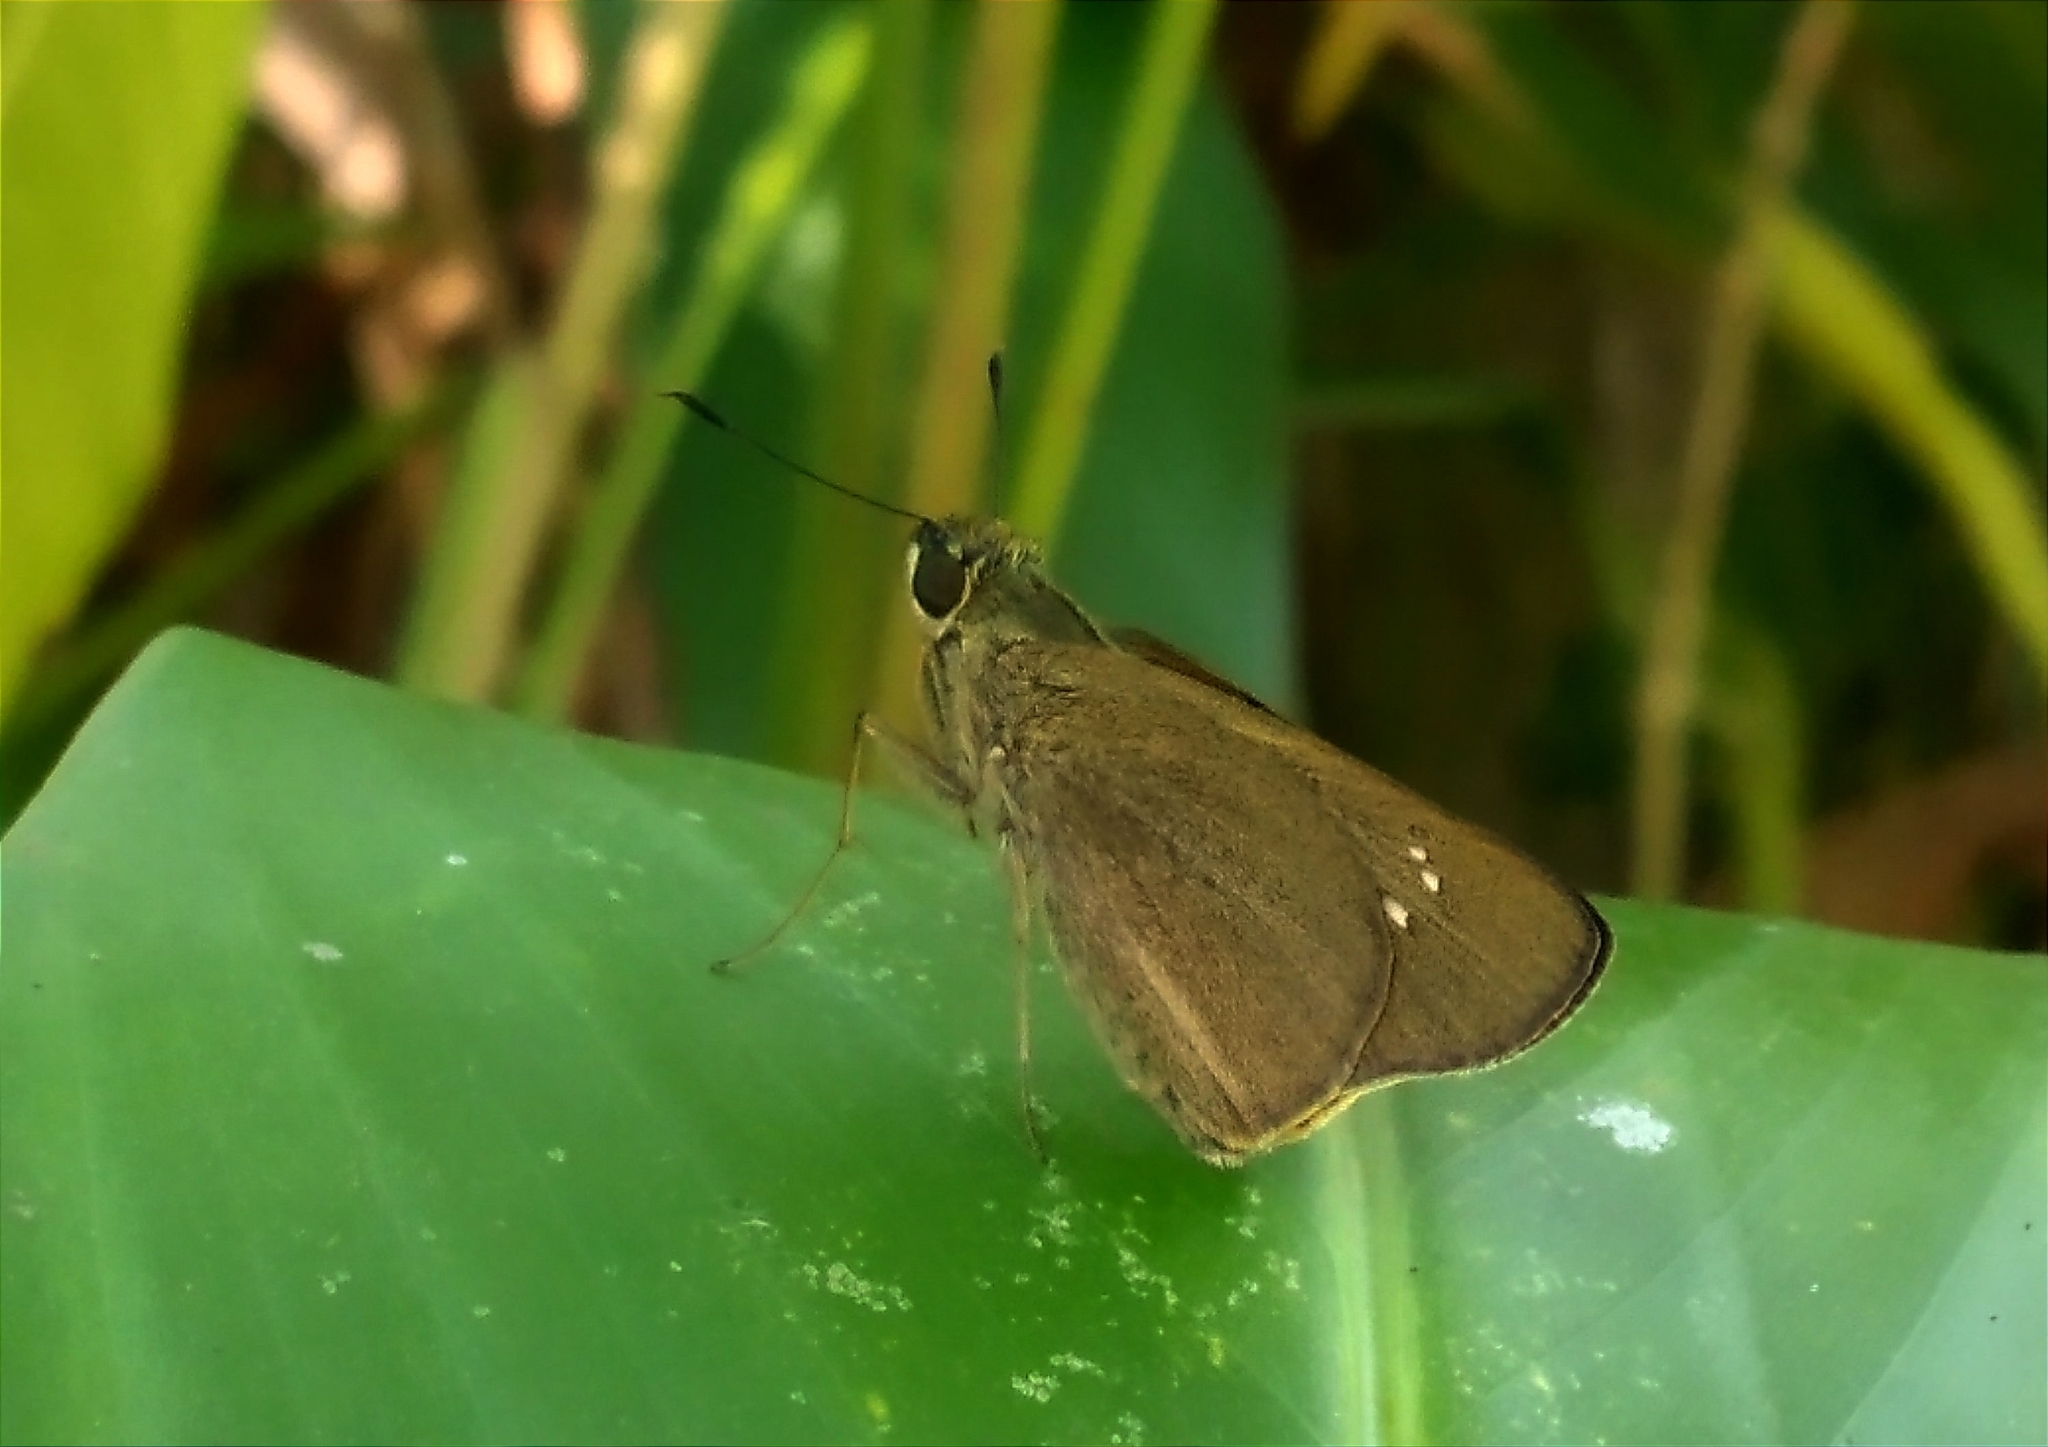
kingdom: Animalia
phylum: Arthropoda
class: Insecta
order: Lepidoptera
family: Hesperiidae
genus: Caltoris
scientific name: Caltoris philippina
